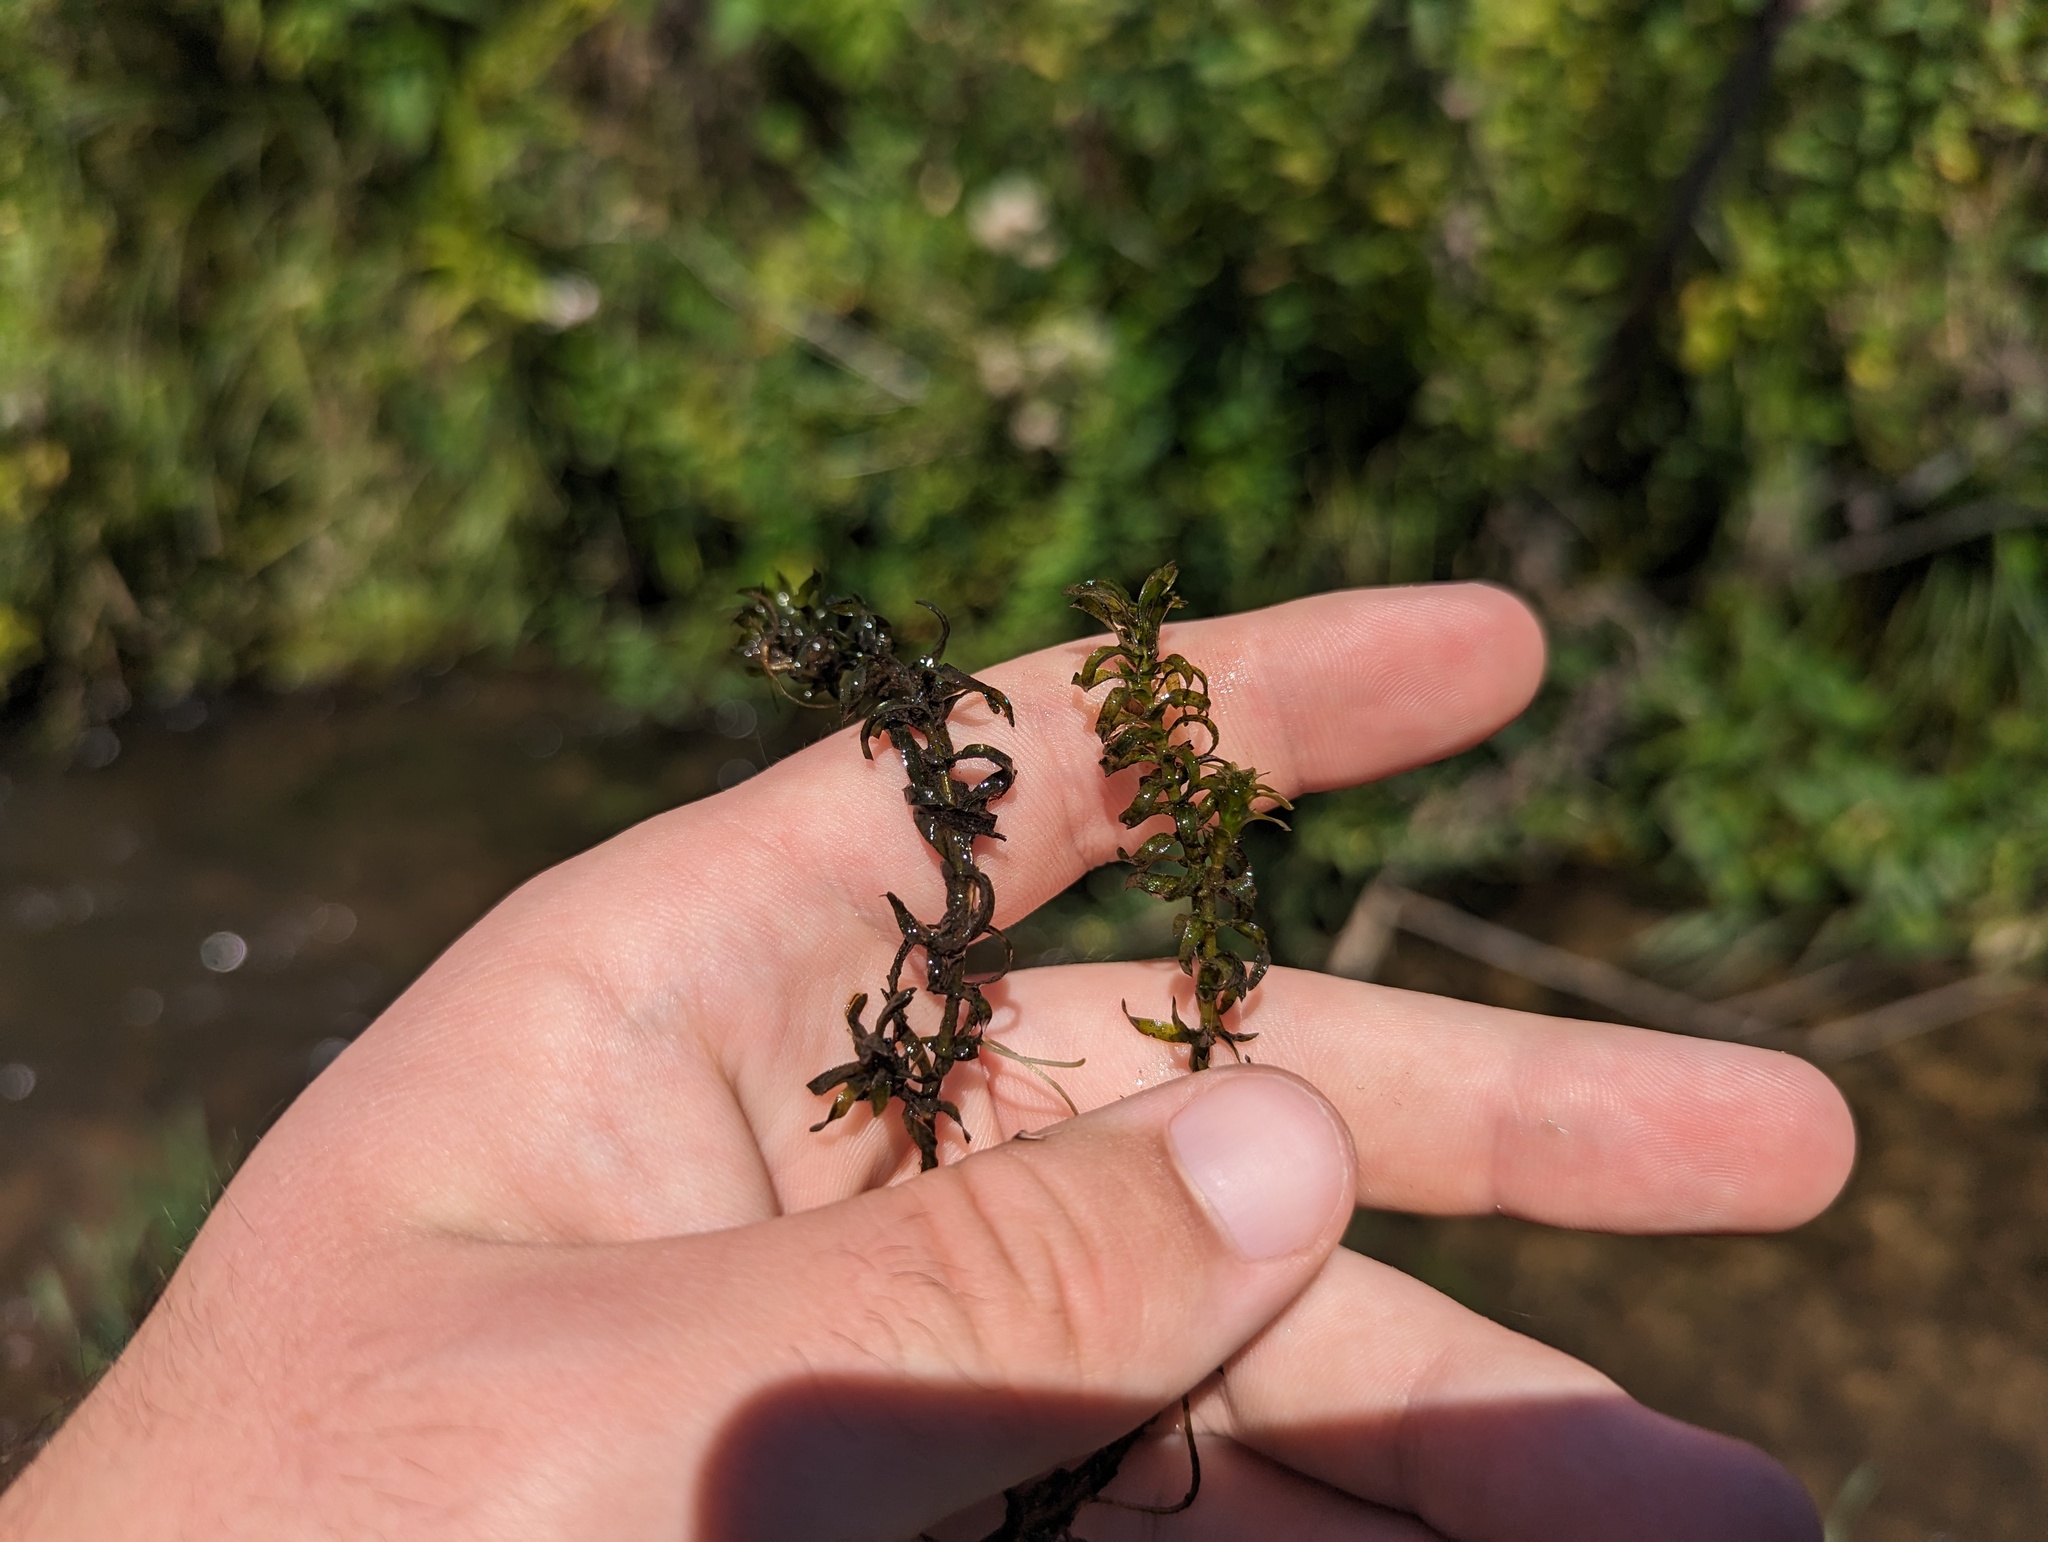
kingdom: Plantae
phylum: Tracheophyta
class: Liliopsida
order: Alismatales
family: Hydrocharitaceae
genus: Elodea
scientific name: Elodea nuttallii
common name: Nuttall's waterweed
